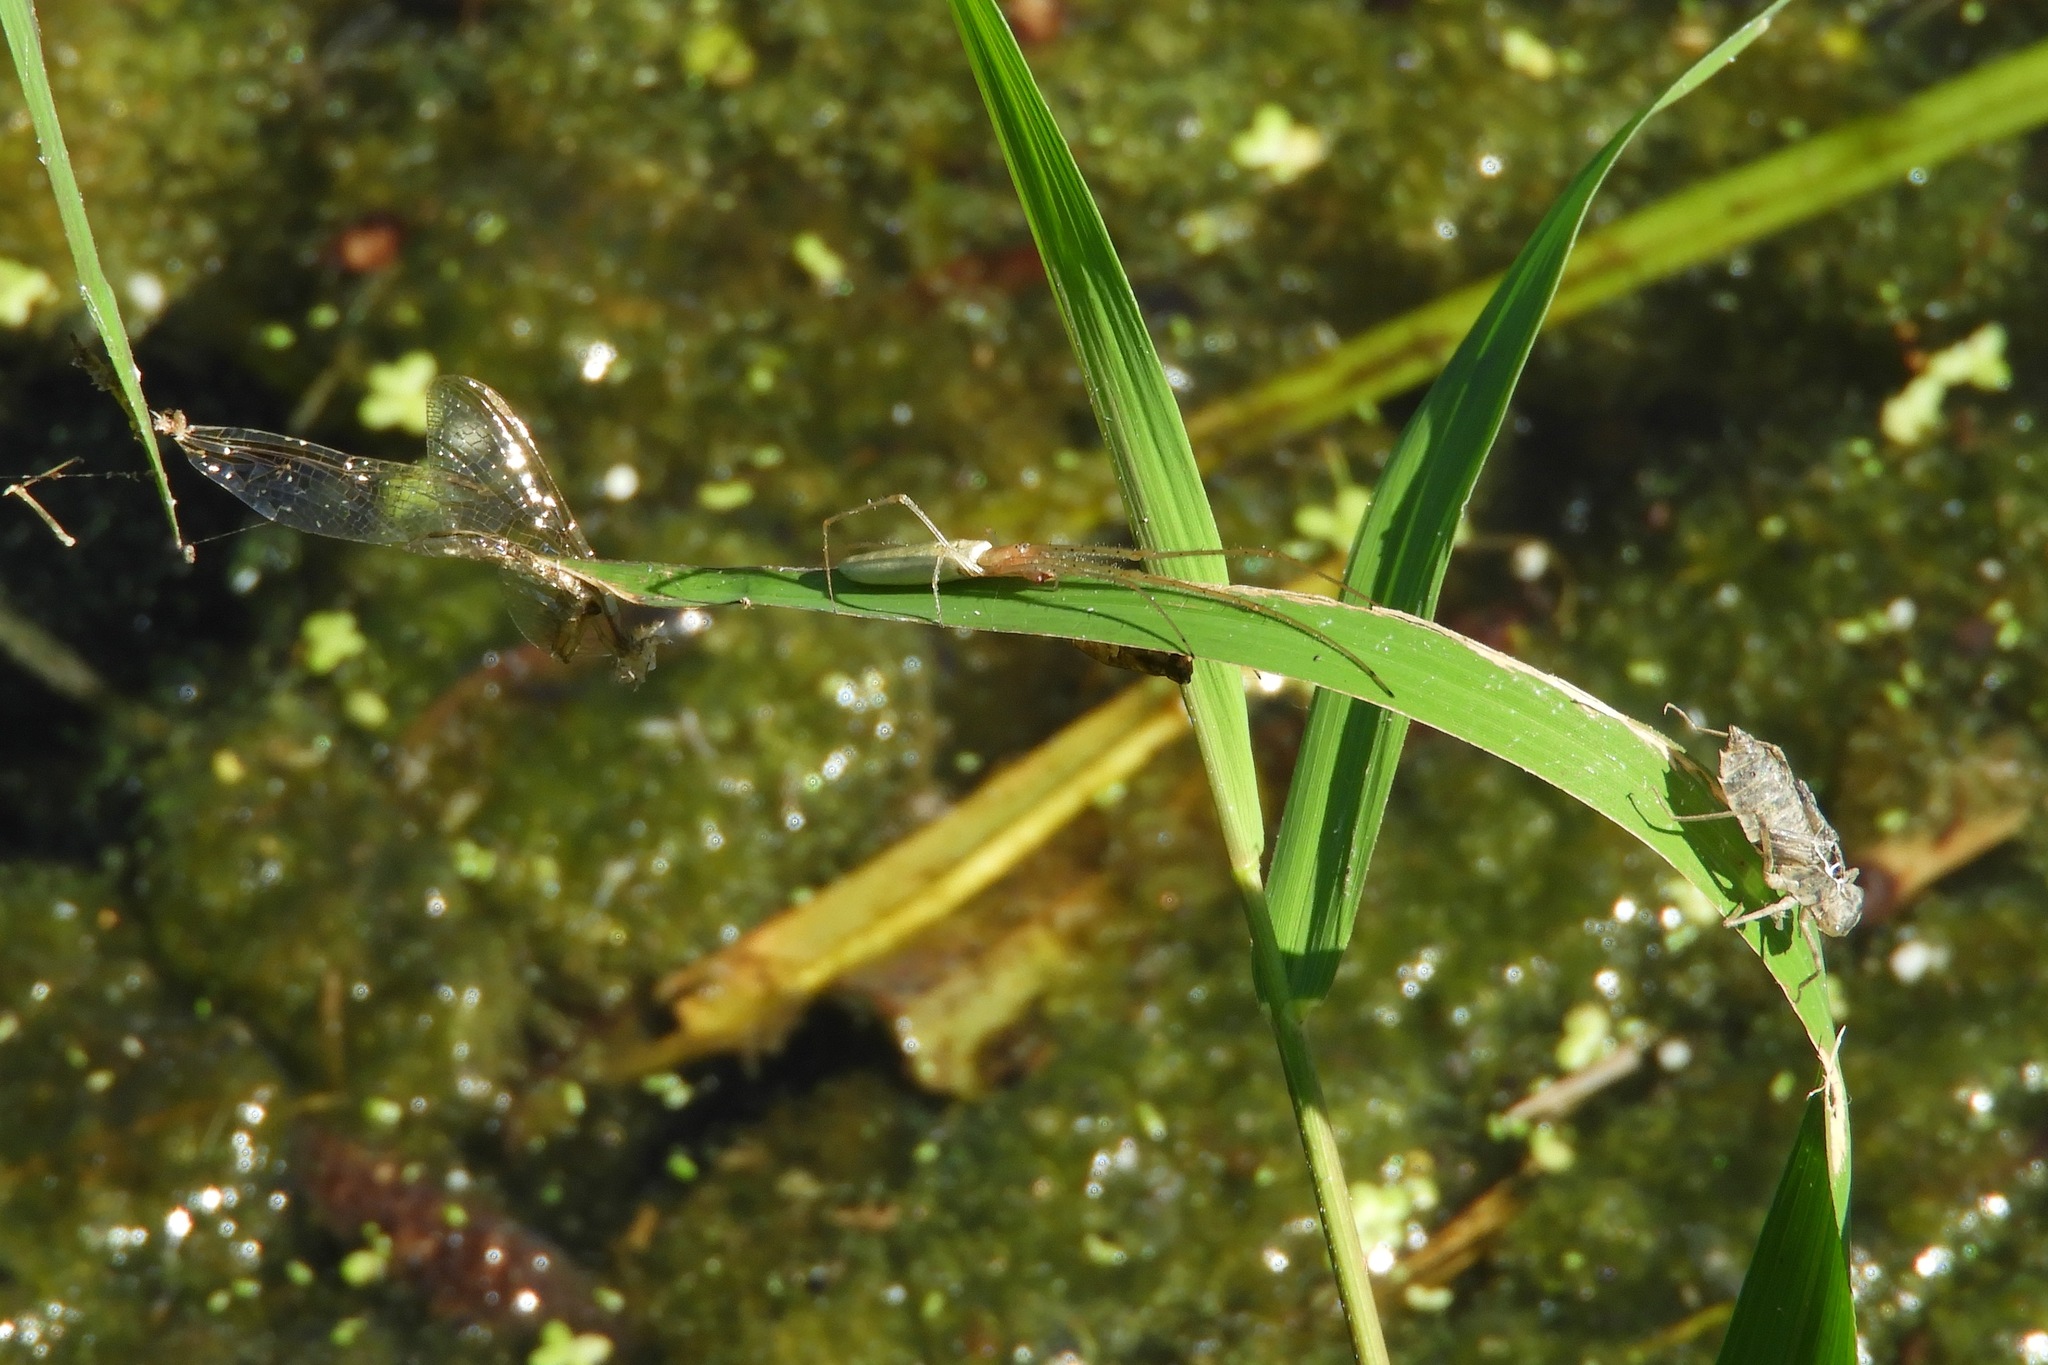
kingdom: Animalia
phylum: Arthropoda
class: Arachnida
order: Araneae
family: Tetragnathidae
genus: Tetragnatha
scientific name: Tetragnatha
